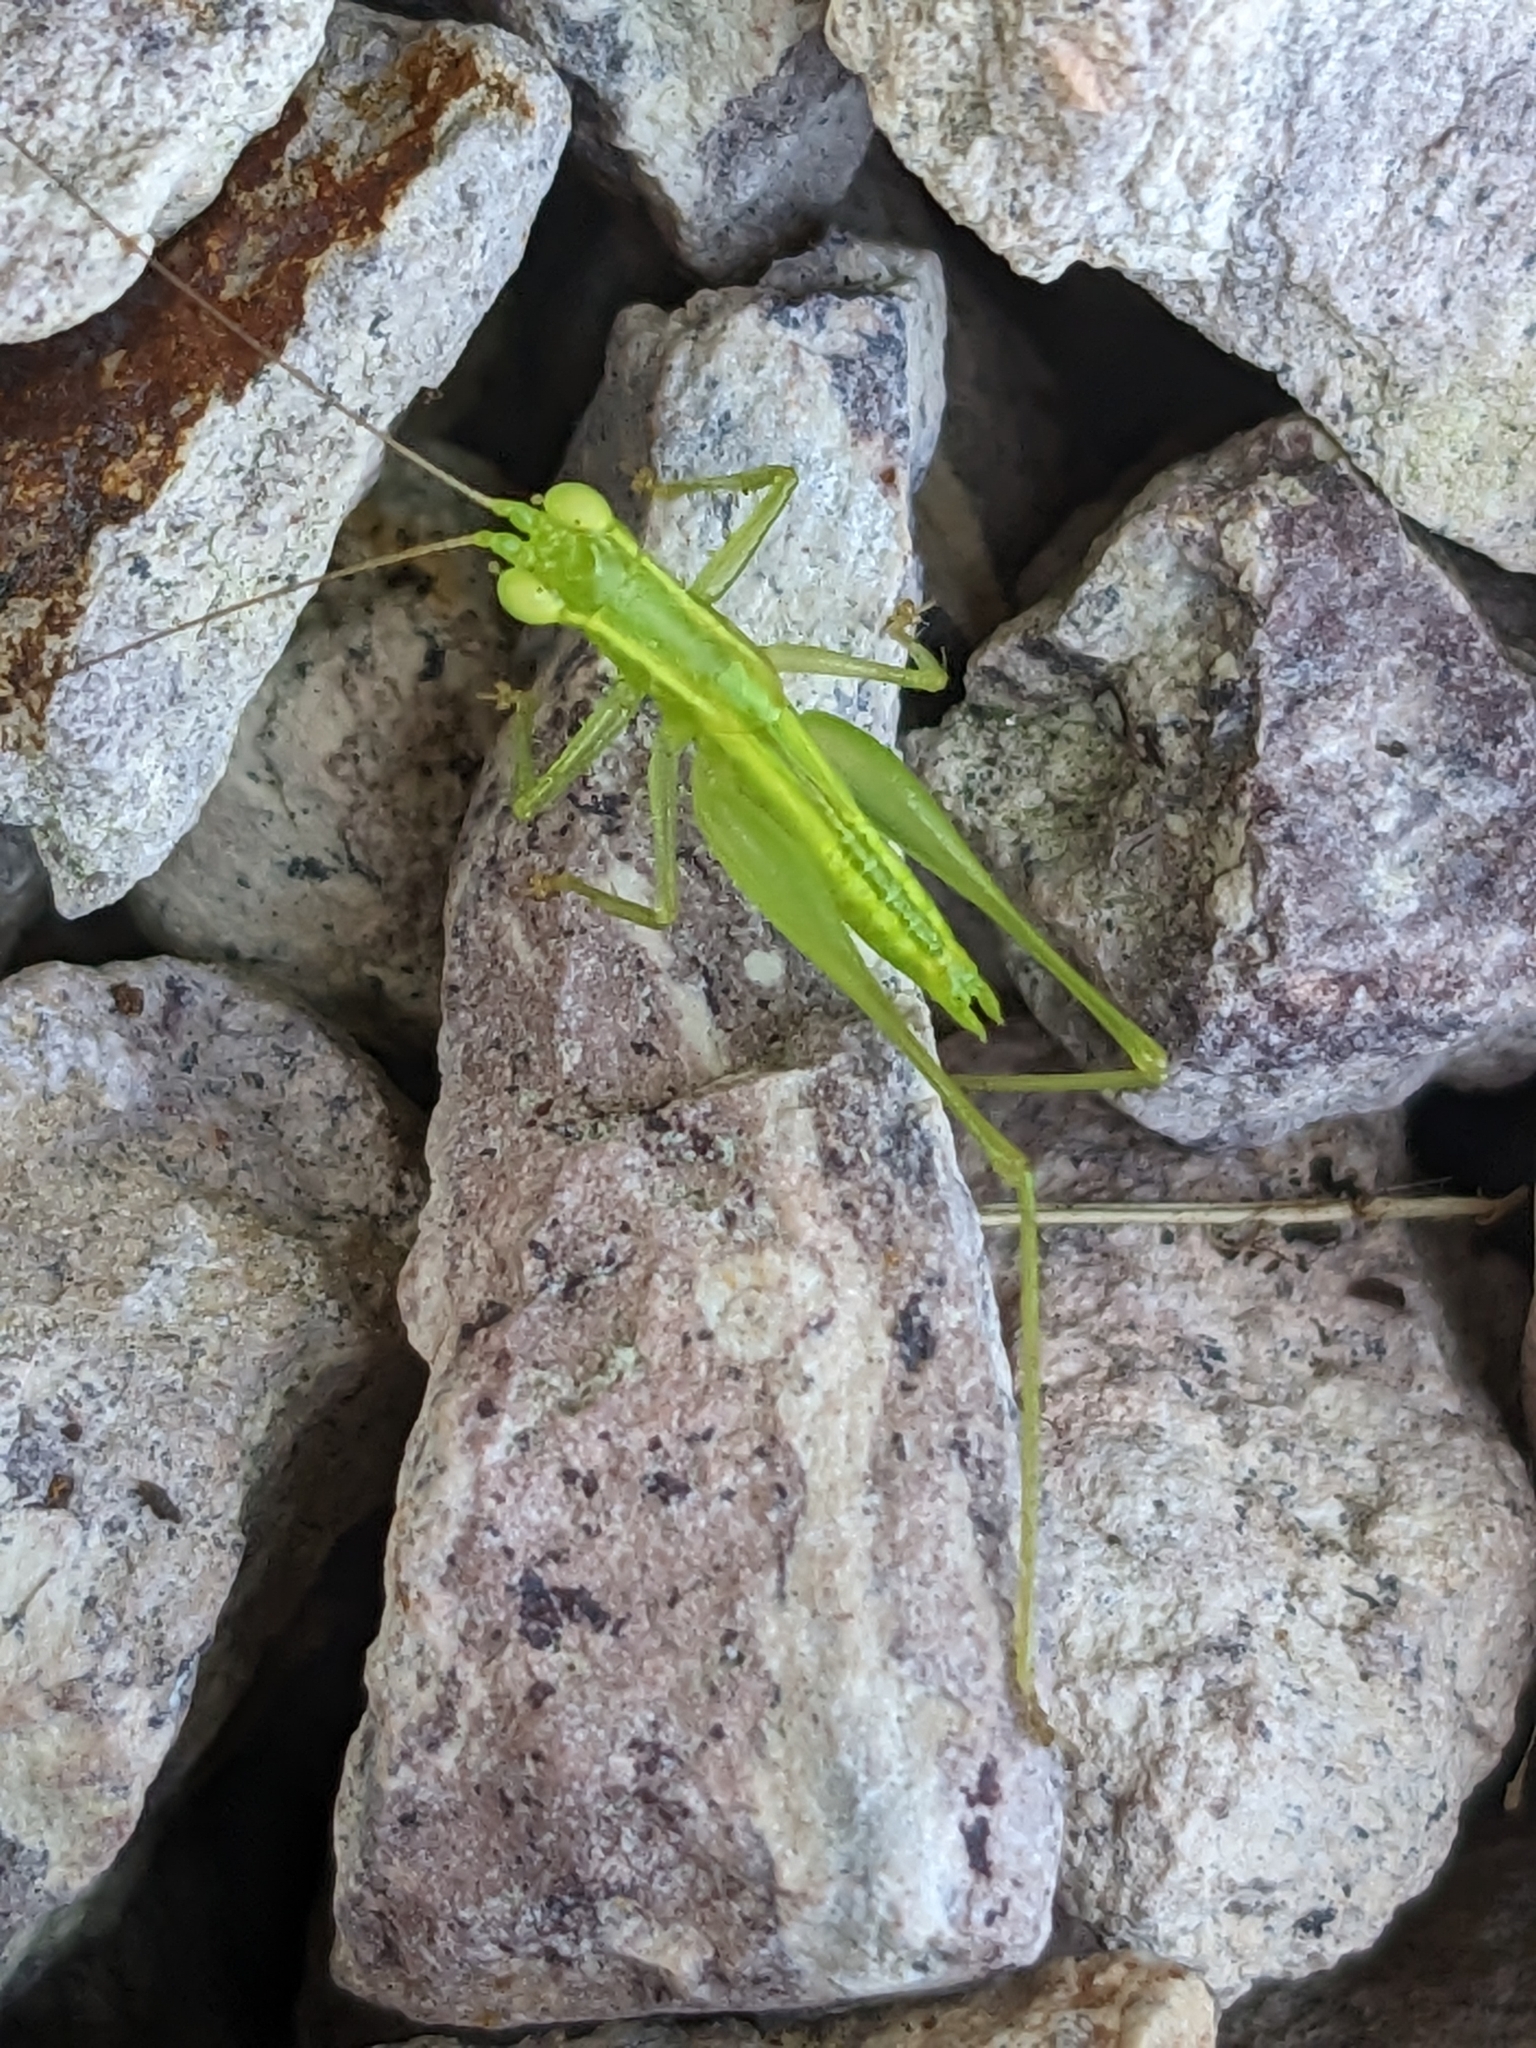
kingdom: Animalia
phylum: Arthropoda
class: Insecta
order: Orthoptera
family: Tettigoniidae
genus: Austrophlugis
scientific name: Austrophlugis debaari
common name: Debaar's swayer
